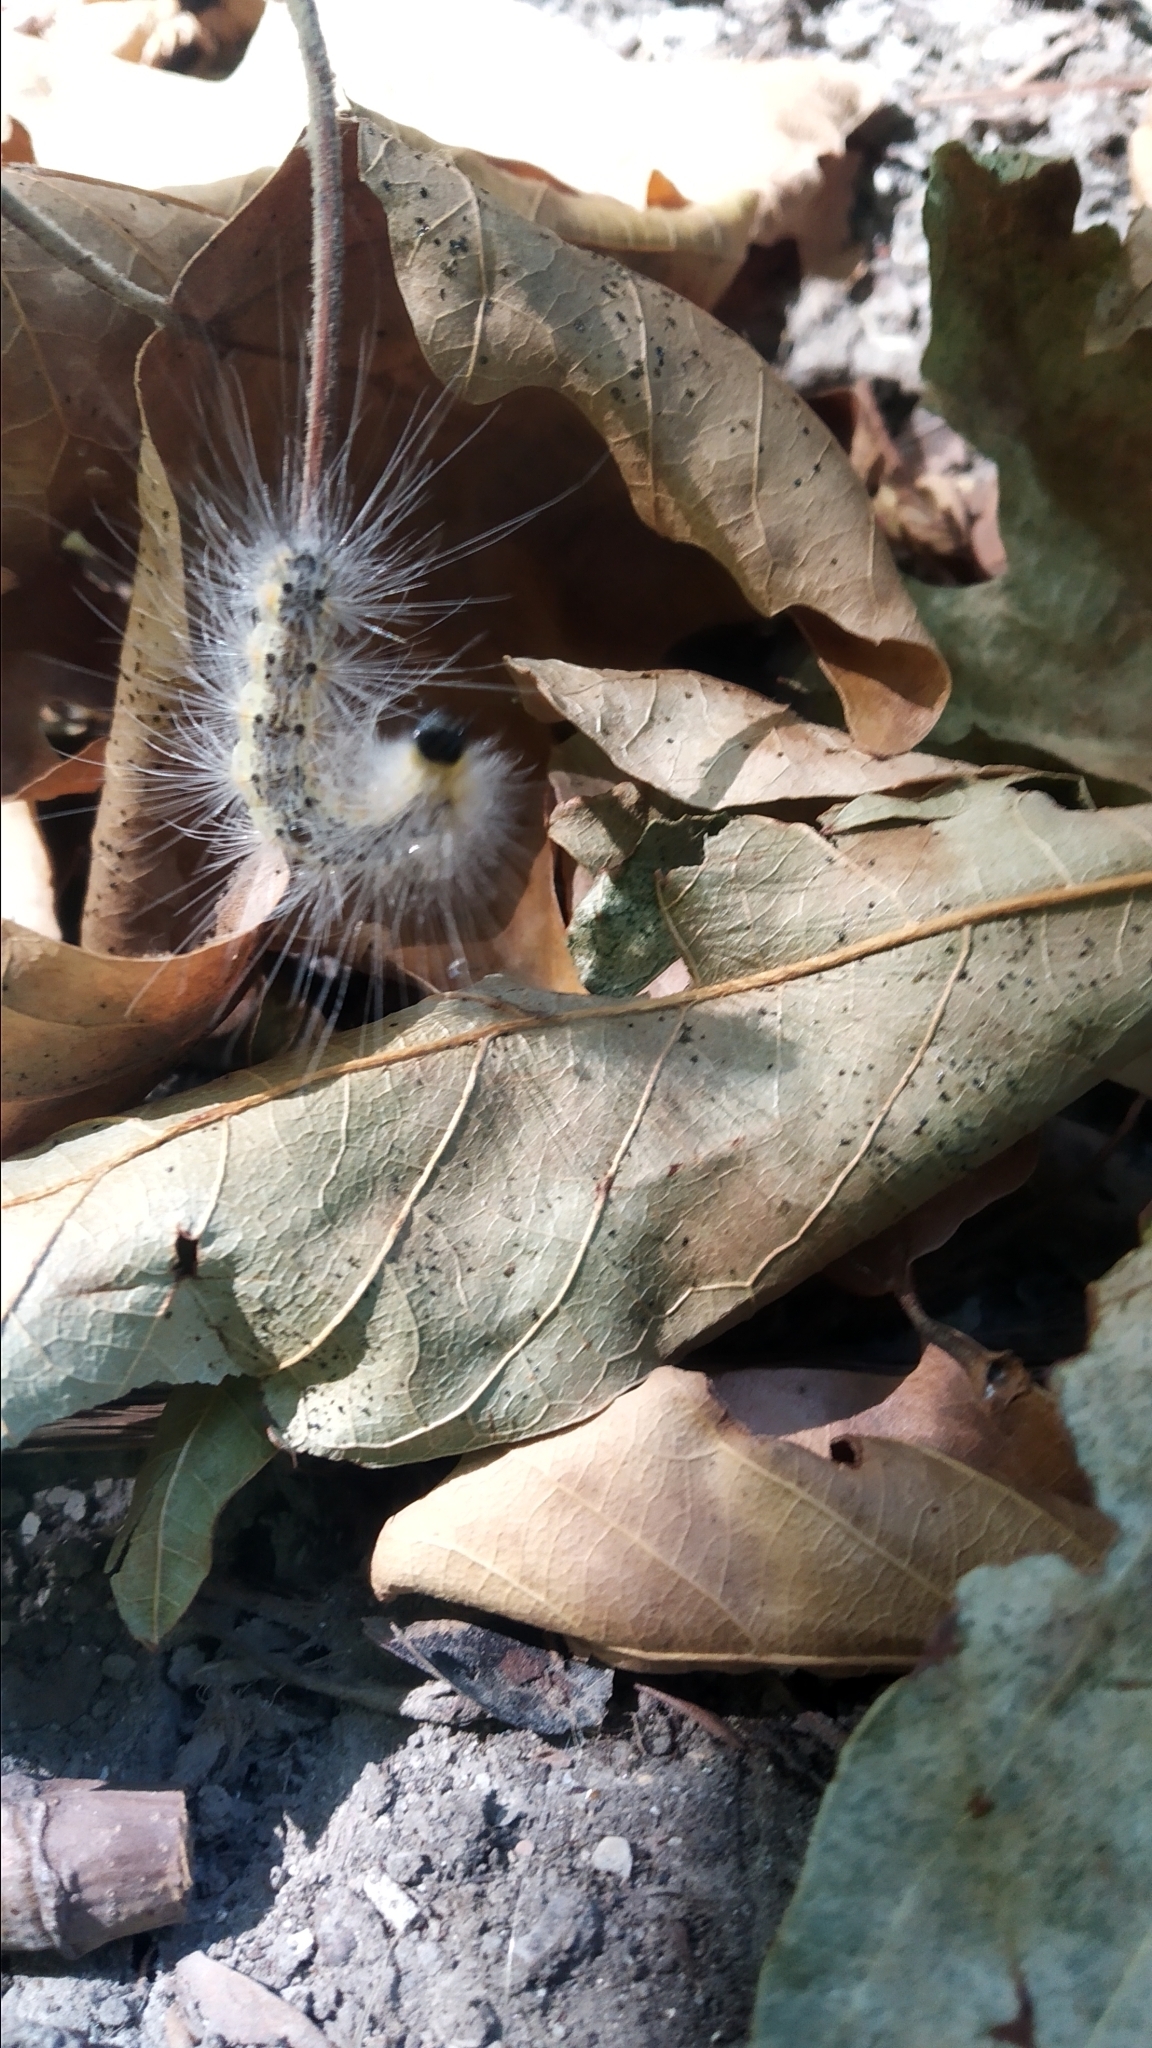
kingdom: Animalia
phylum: Arthropoda
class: Insecta
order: Lepidoptera
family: Erebidae
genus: Hyphantria
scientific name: Hyphantria cunea
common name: American white moth
